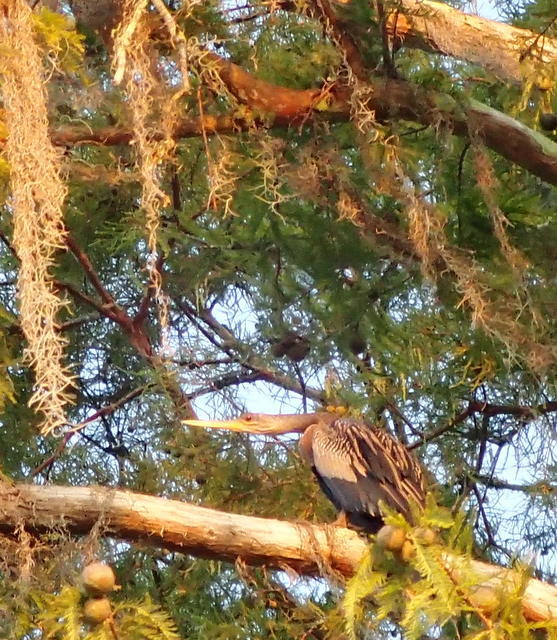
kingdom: Animalia
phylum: Chordata
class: Aves
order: Suliformes
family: Anhingidae
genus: Anhinga
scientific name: Anhinga anhinga
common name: Anhinga
